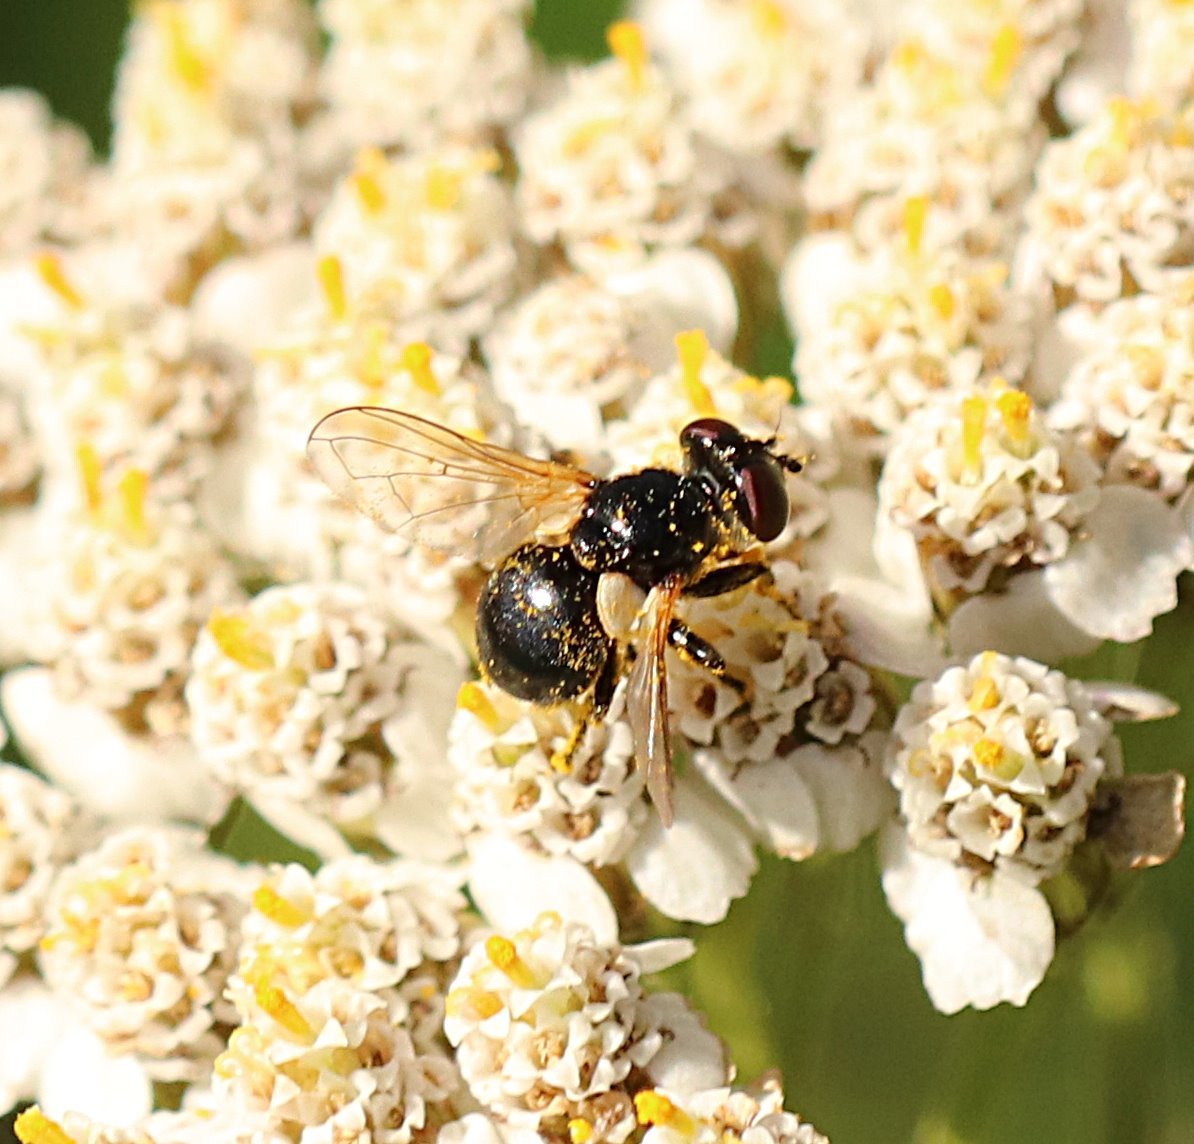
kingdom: Animalia
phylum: Arthropoda
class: Insecta
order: Diptera
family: Tachinidae
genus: Cistogaster
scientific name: Cistogaster globosa
